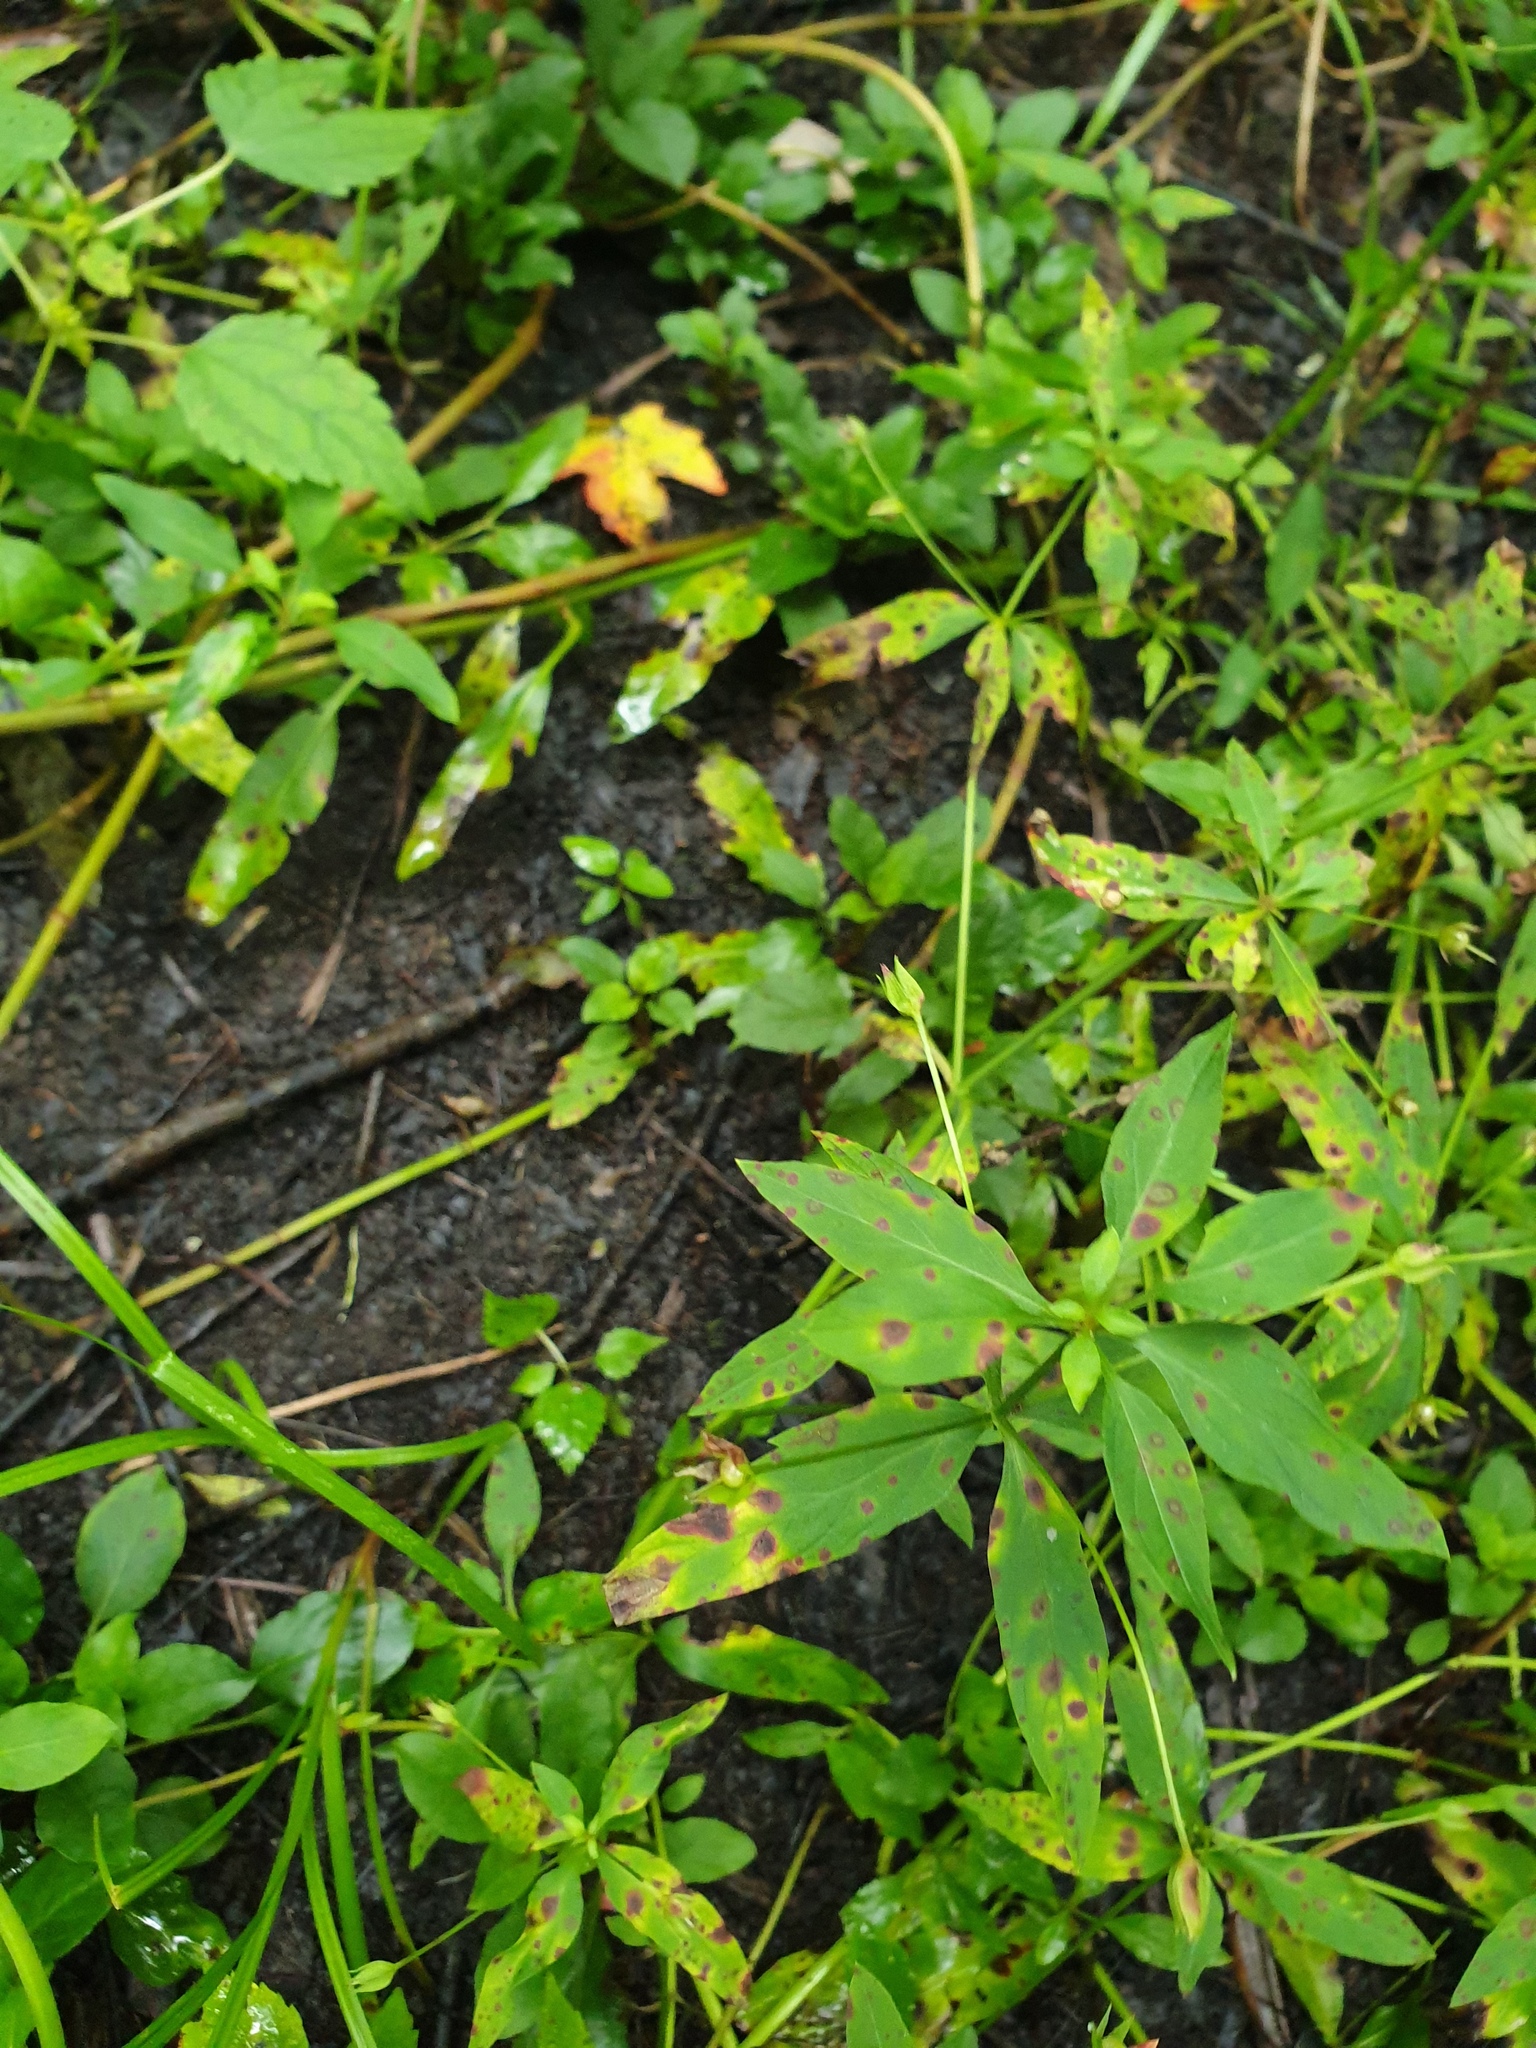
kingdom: Plantae
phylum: Tracheophyta
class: Magnoliopsida
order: Ericales
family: Primulaceae
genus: Lysimachia
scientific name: Lysimachia hybrida
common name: Lowland loosestrife
